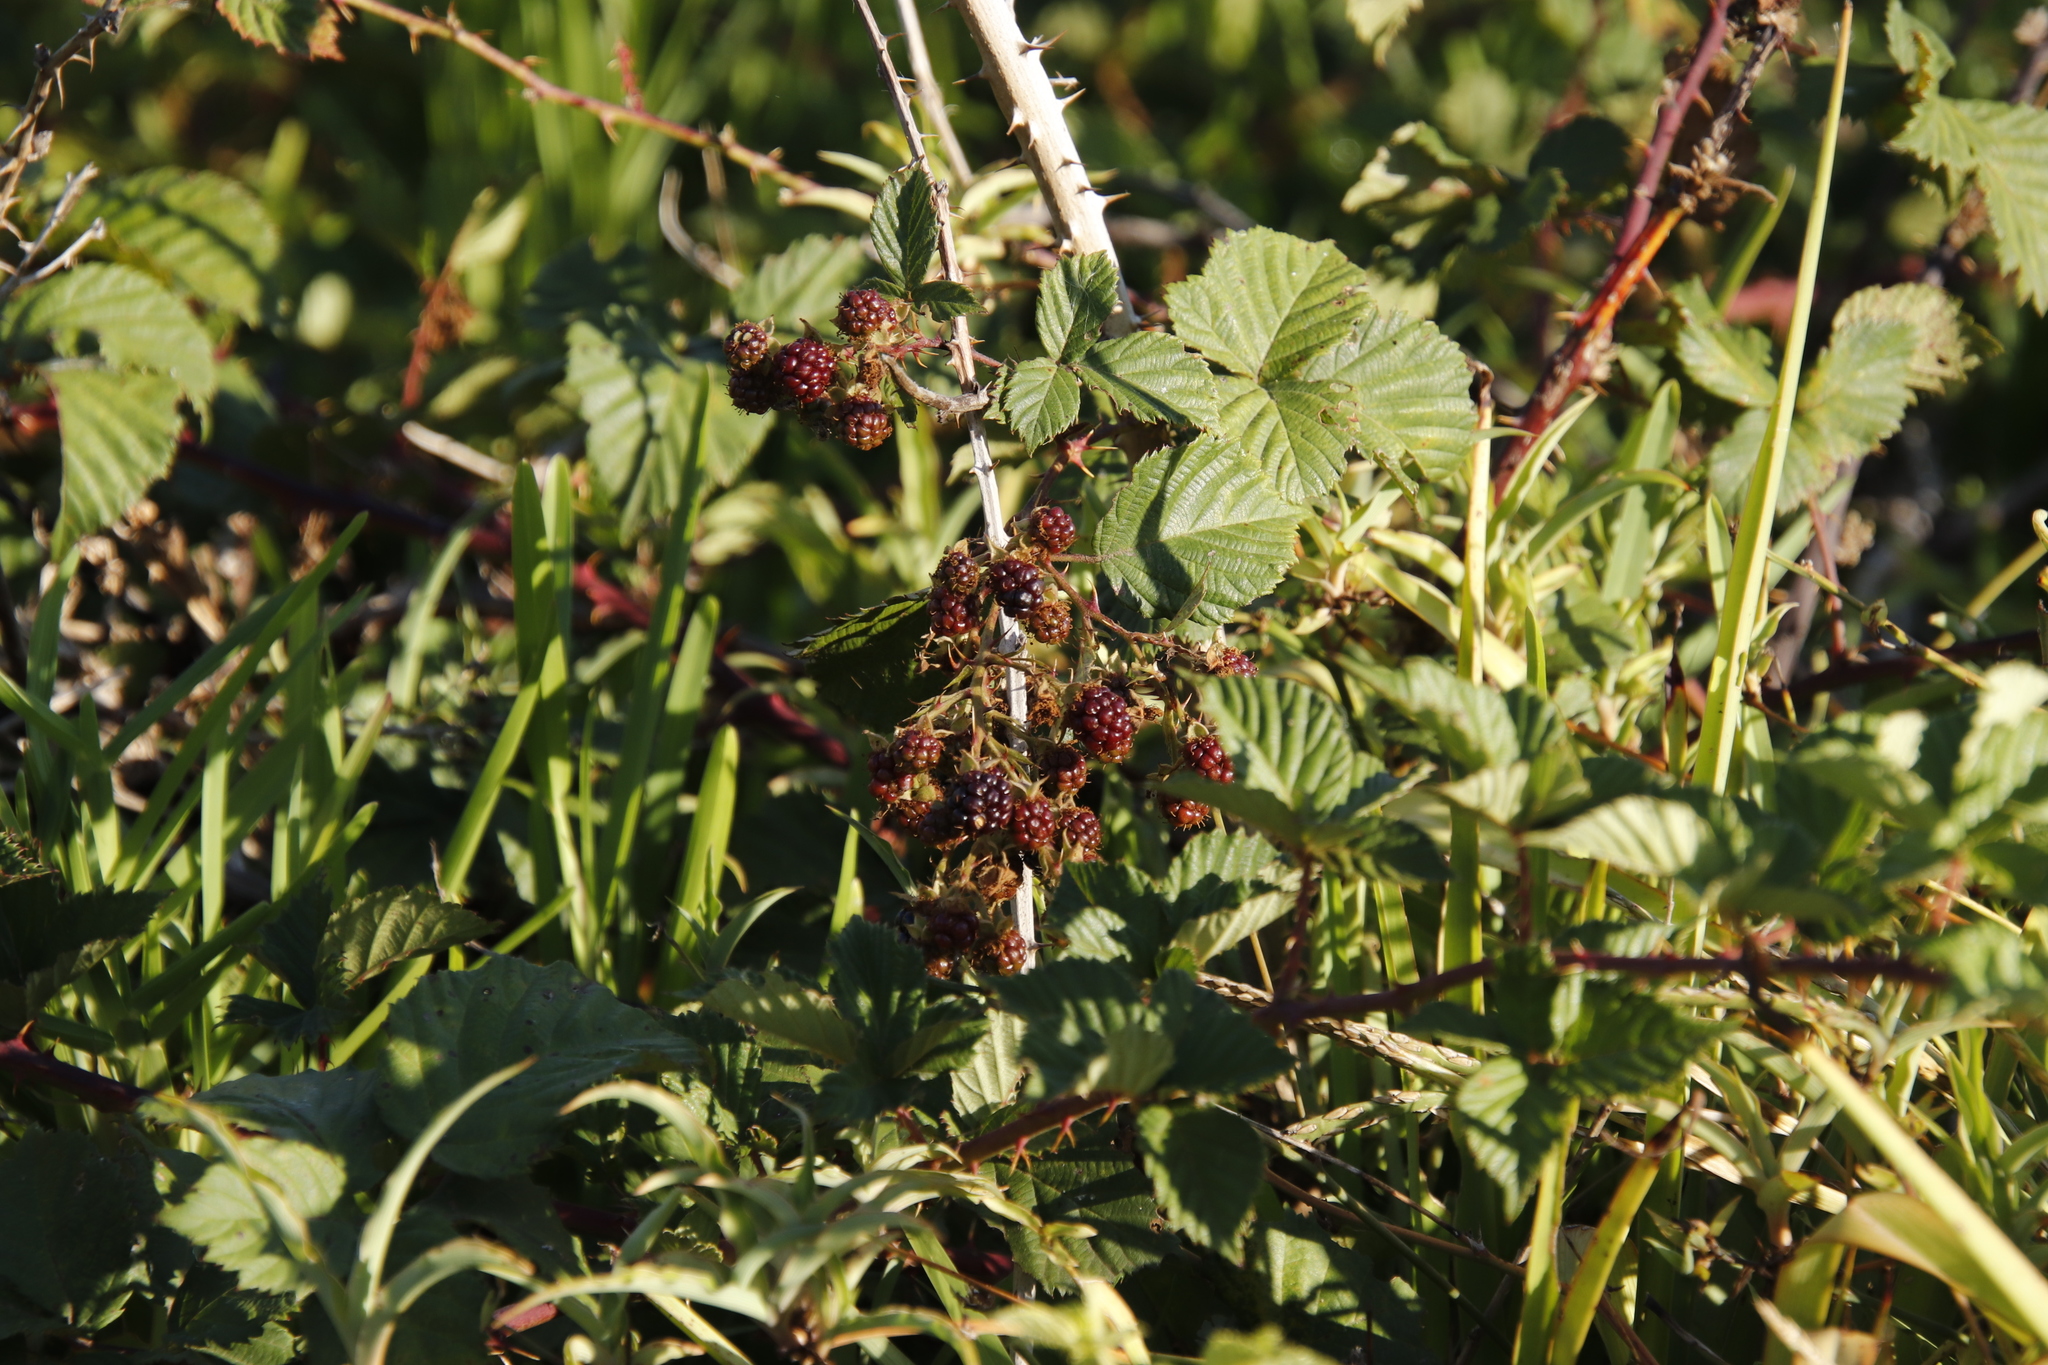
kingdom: Plantae
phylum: Tracheophyta
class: Magnoliopsida
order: Rosales
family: Rosaceae
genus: Rubus
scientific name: Rubus affinis
